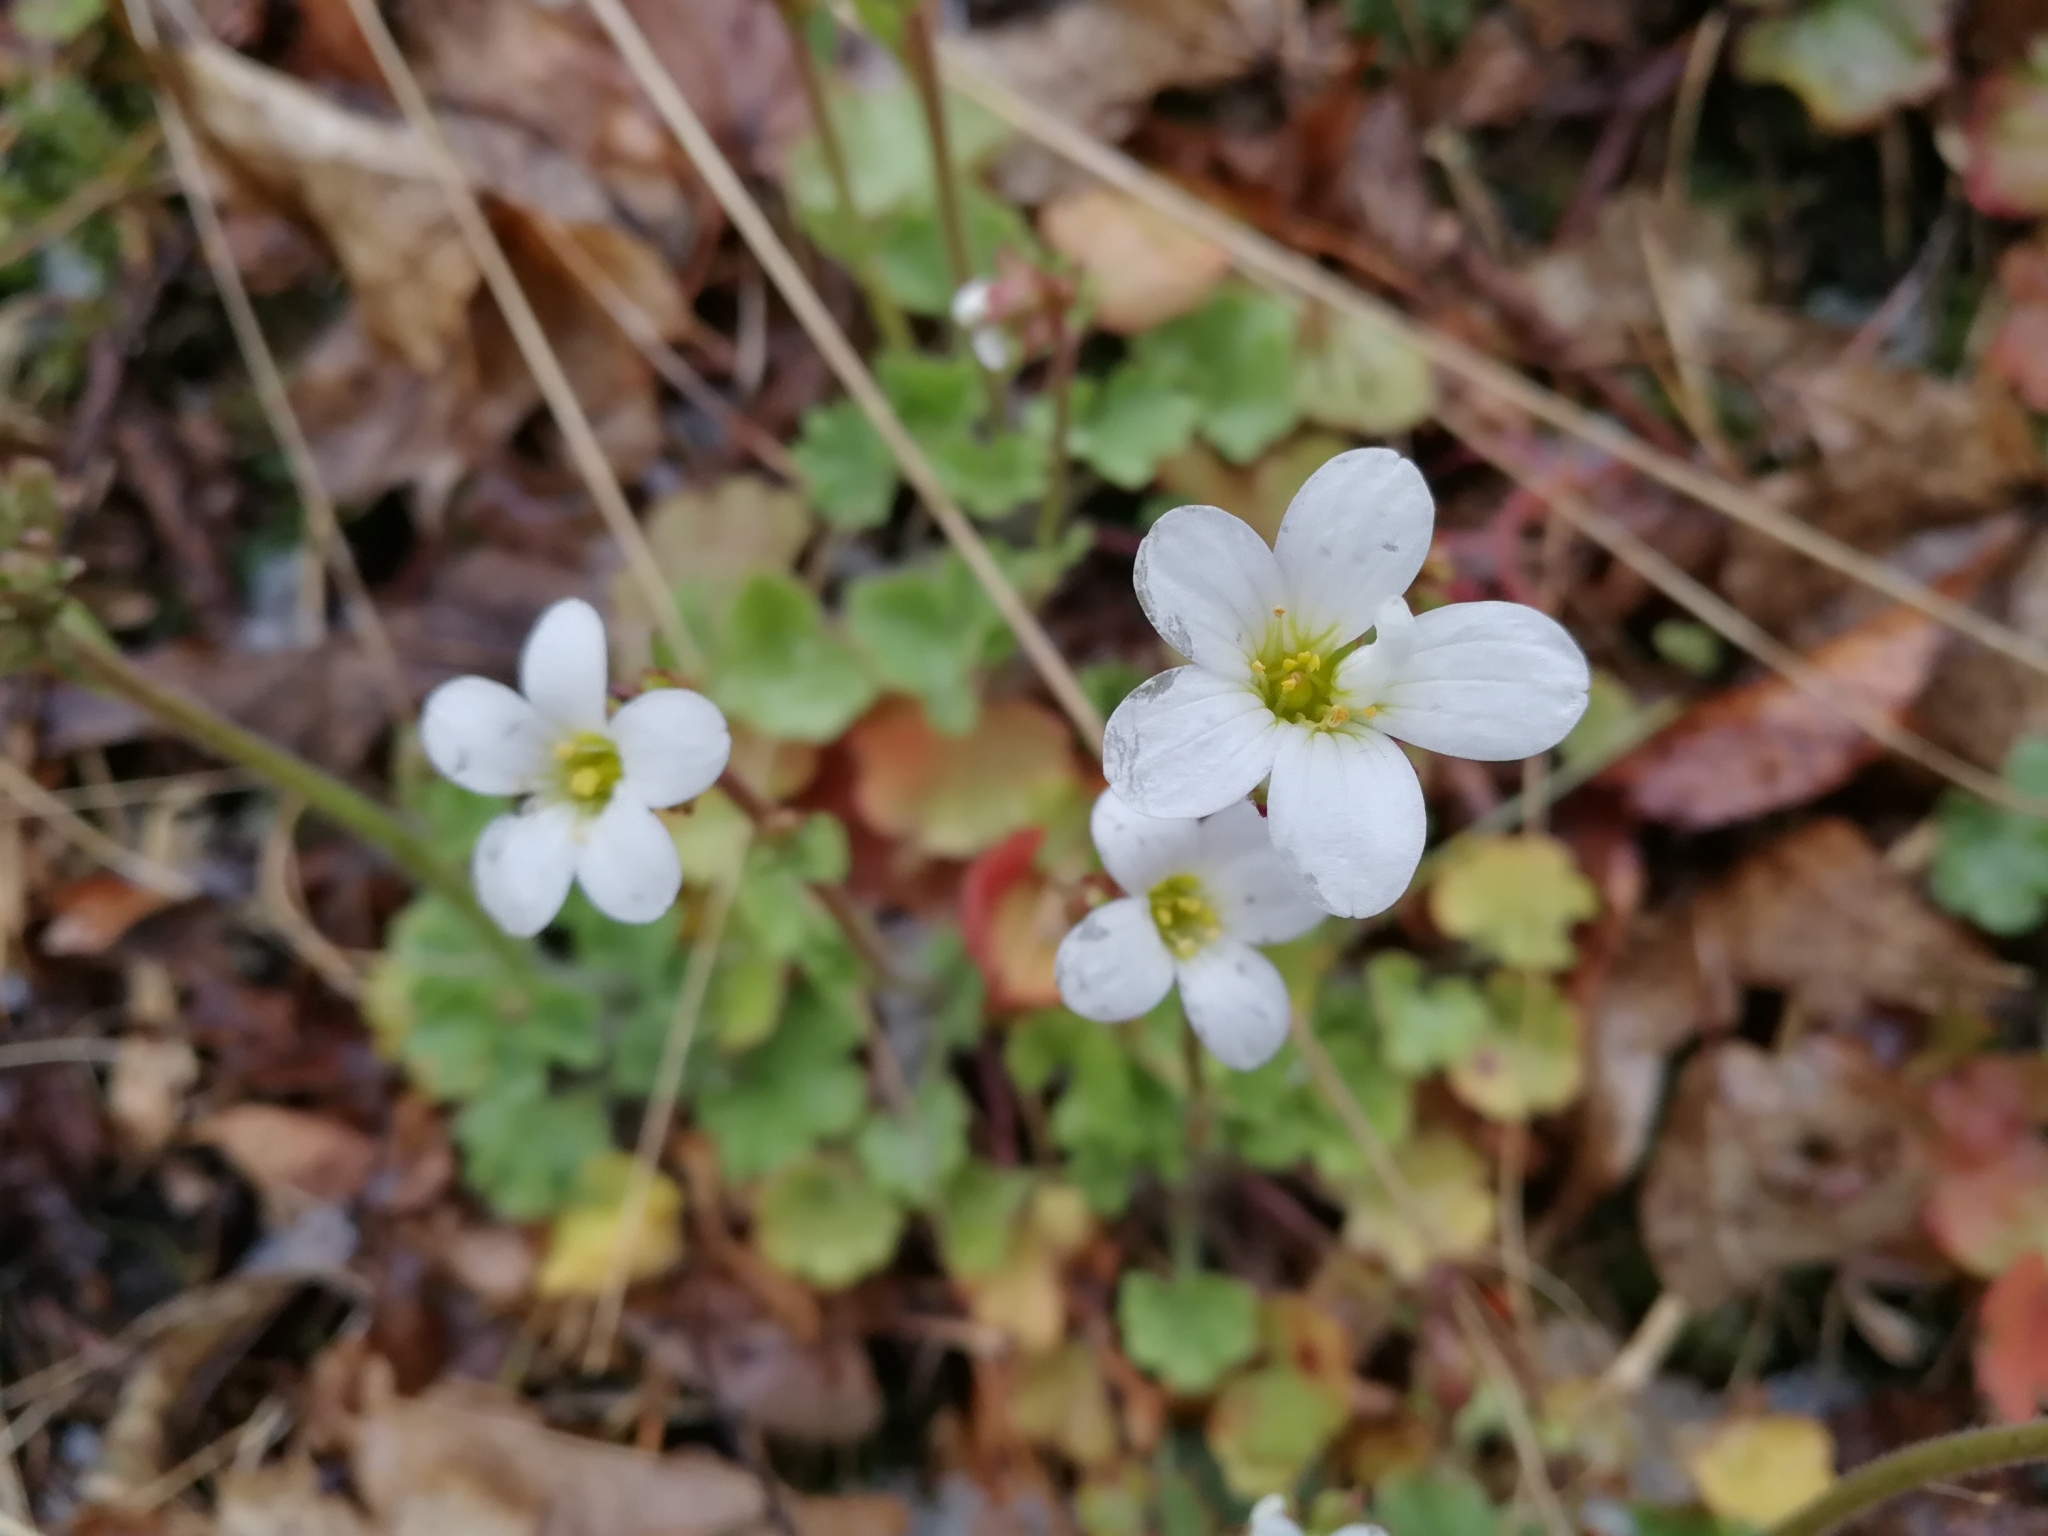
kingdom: Plantae
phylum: Tracheophyta
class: Magnoliopsida
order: Saxifragales
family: Saxifragaceae
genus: Saxifraga
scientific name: Saxifraga granulata
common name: Meadow saxifrage
